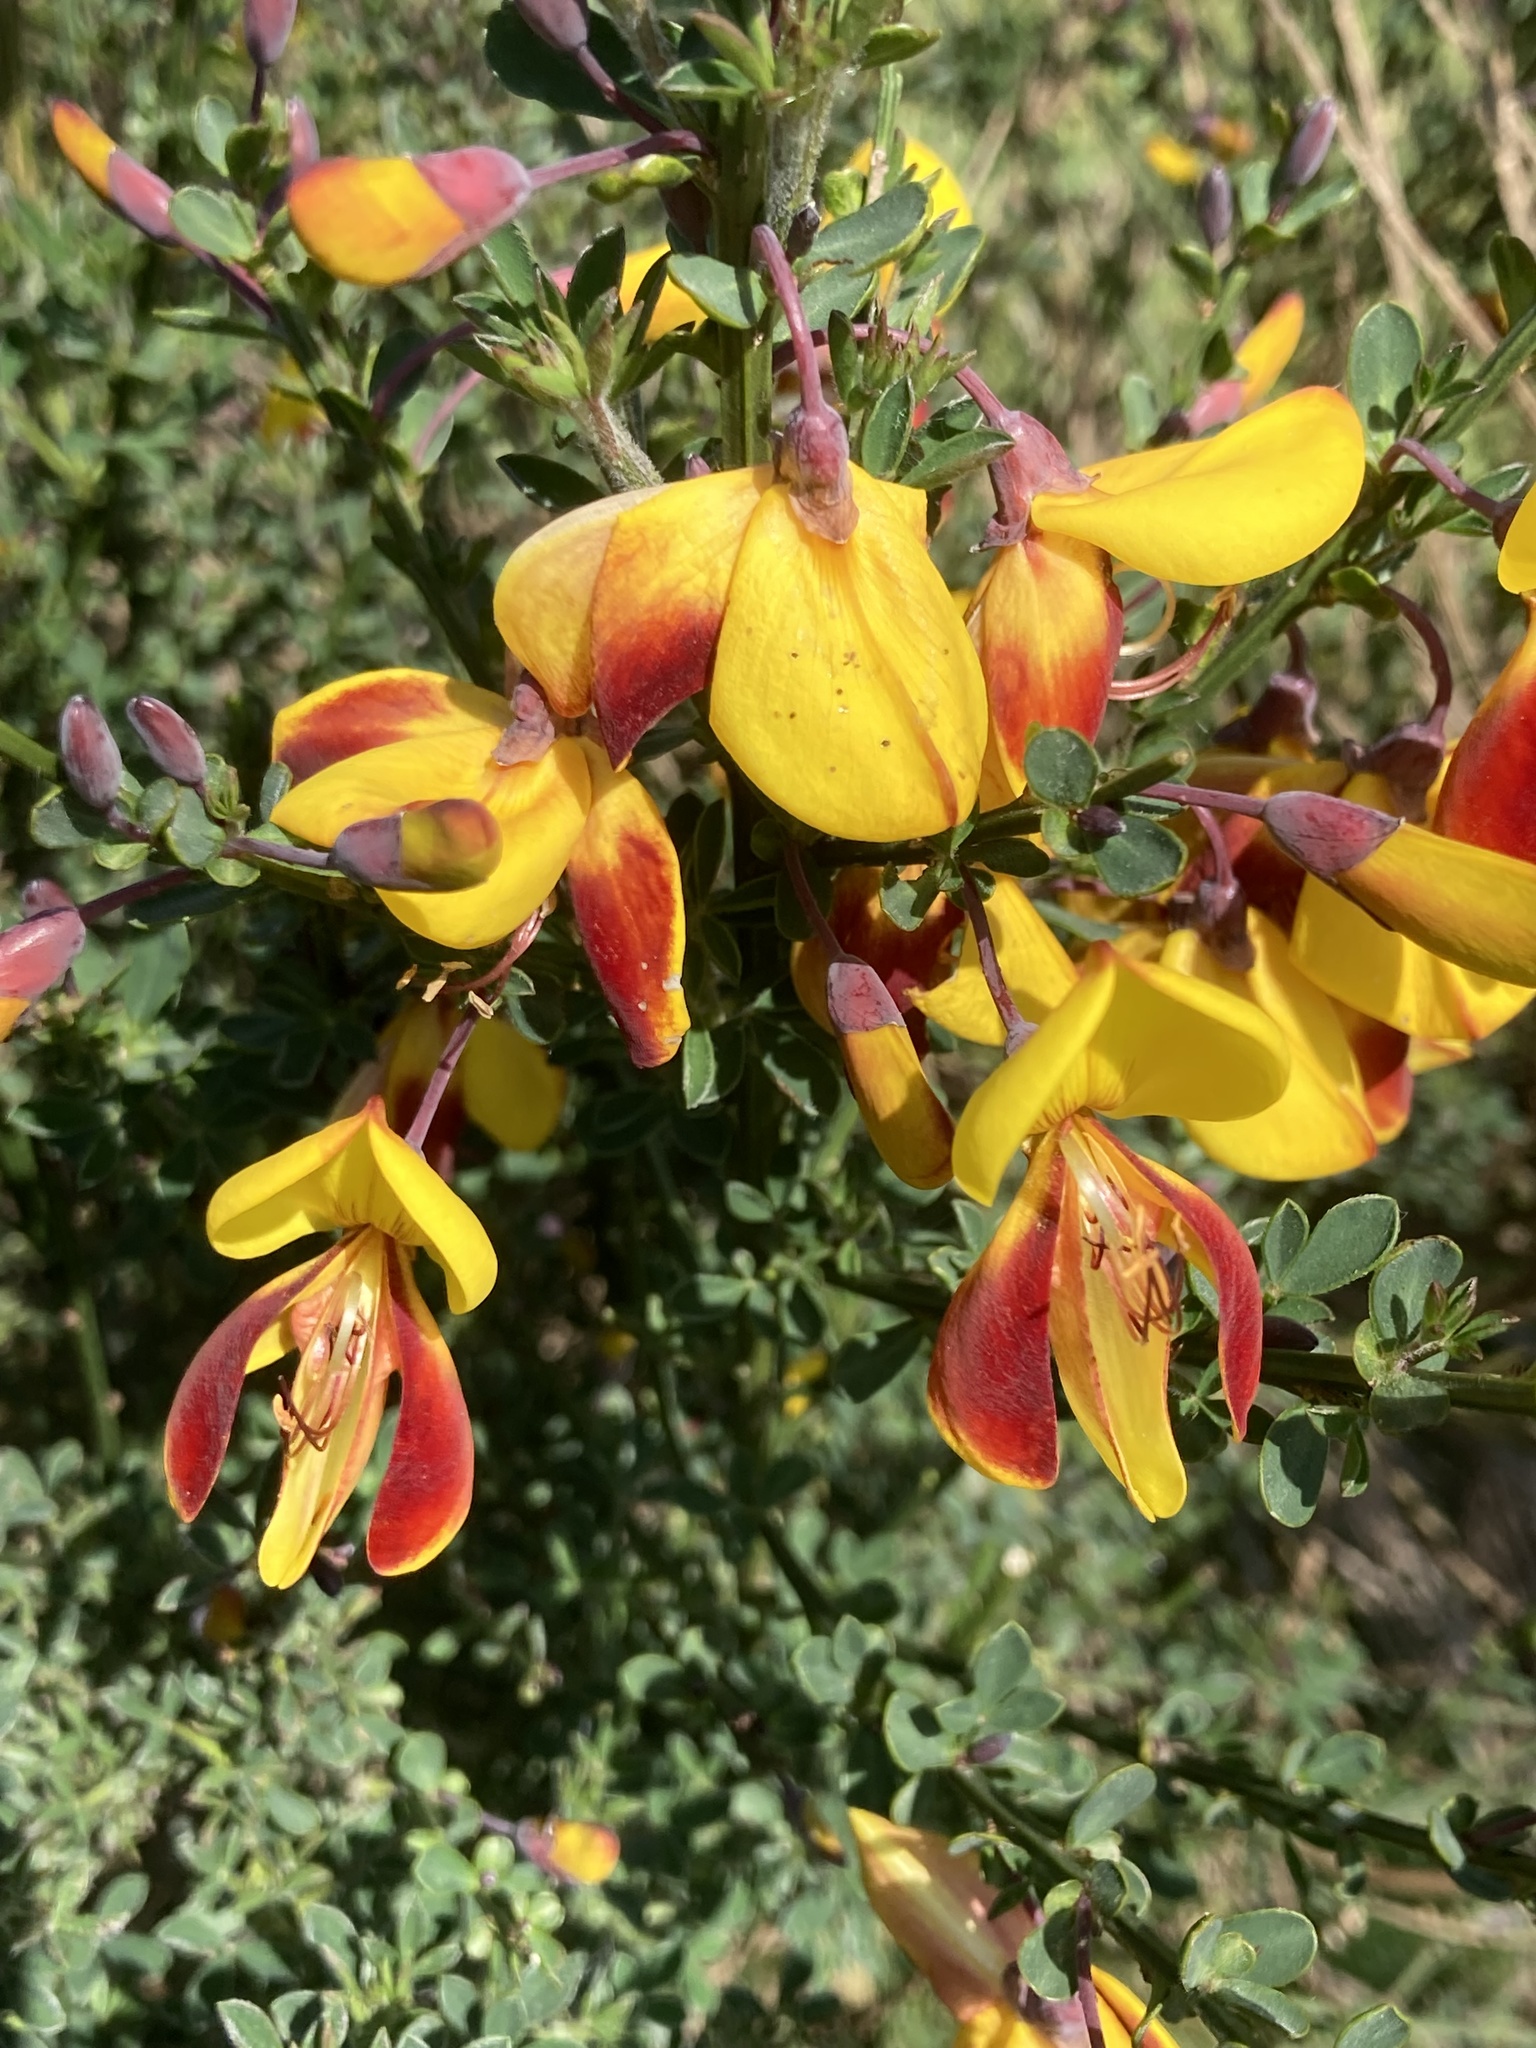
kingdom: Plantae
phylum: Tracheophyta
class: Magnoliopsida
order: Fabales
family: Fabaceae
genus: Cytisus
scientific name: Cytisus scoparius
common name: Scotch broom
